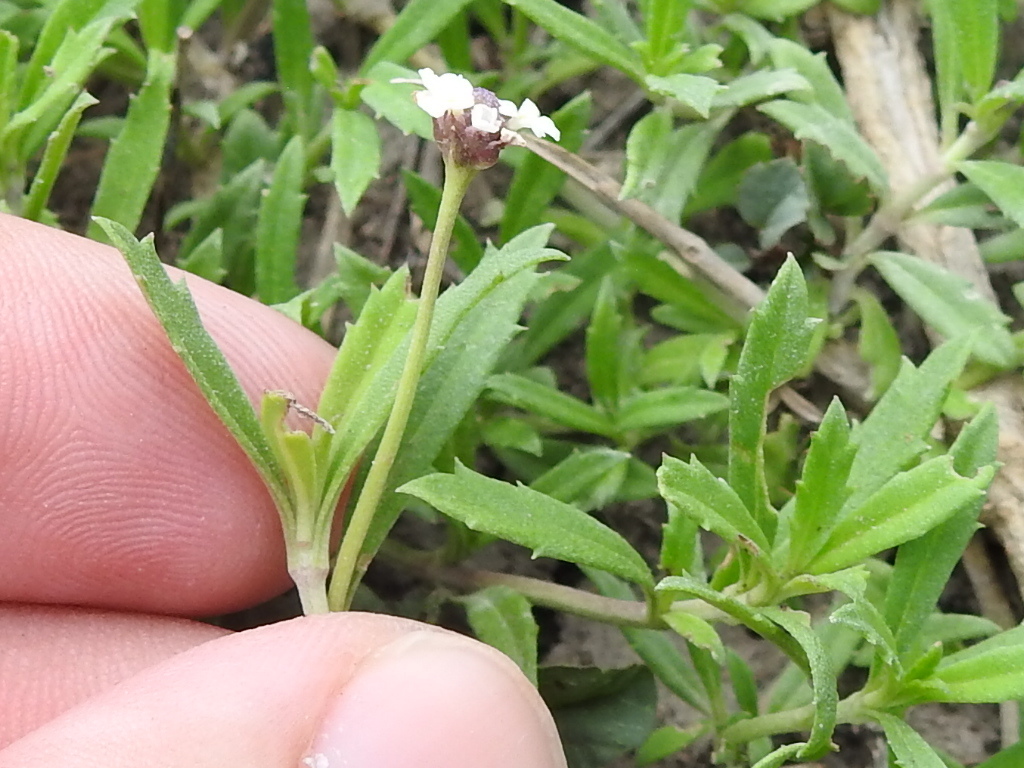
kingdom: Plantae
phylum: Tracheophyta
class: Magnoliopsida
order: Lamiales
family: Verbenaceae
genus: Phyla
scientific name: Phyla nodiflora
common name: Frogfruit
